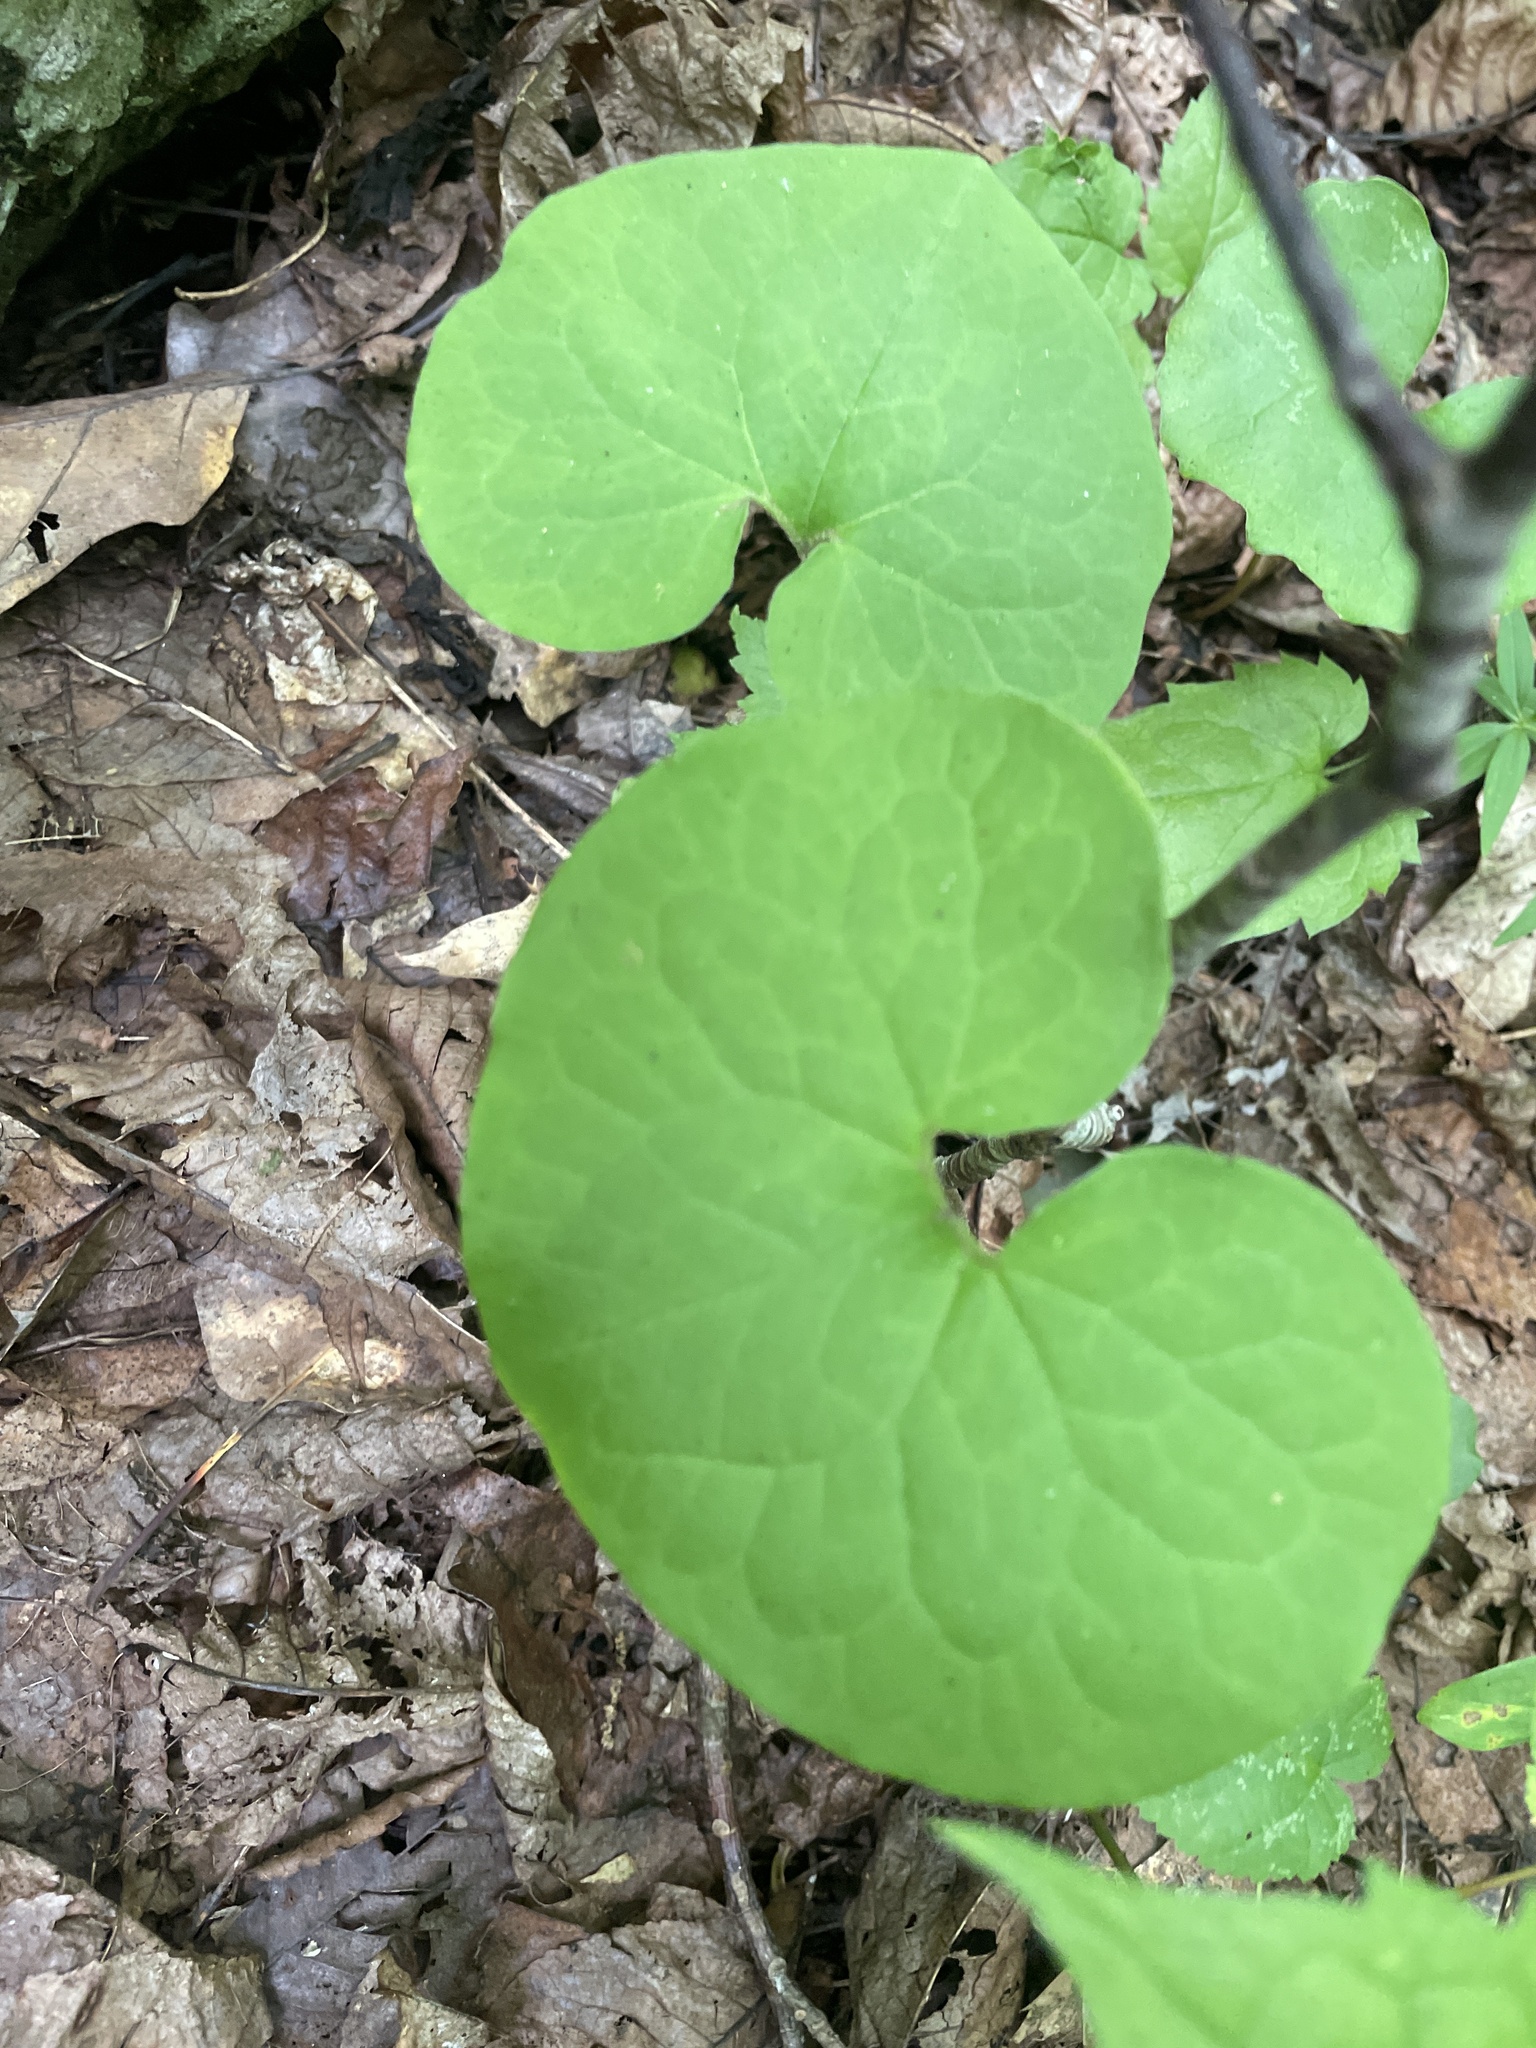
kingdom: Plantae
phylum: Tracheophyta
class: Magnoliopsida
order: Piperales
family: Aristolochiaceae
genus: Asarum
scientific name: Asarum canadense
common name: Wild ginger
